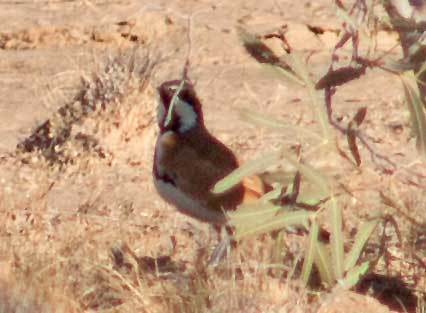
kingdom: Animalia
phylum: Chordata
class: Aves
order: Passeriformes
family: Psophodidae
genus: Cinclosoma
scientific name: Cinclosoma cinnamomeum
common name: Cinnamon quail-thrush
